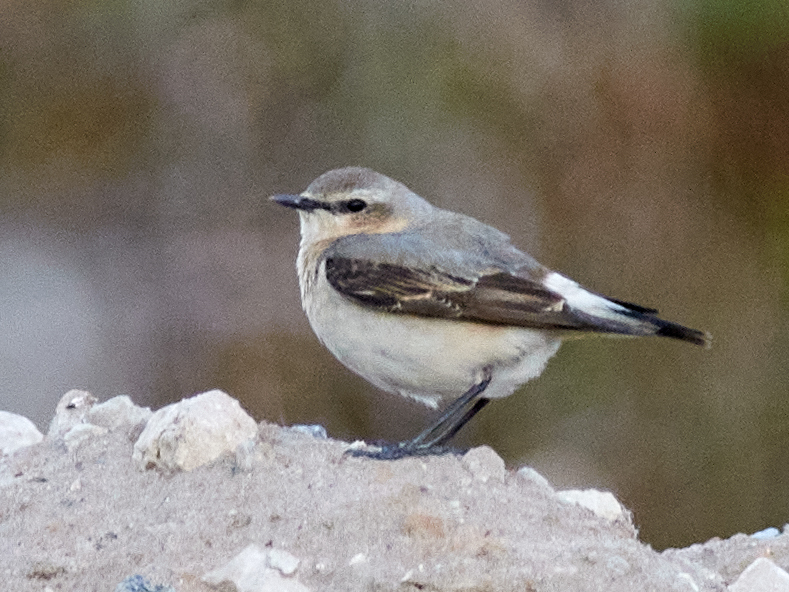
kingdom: Animalia
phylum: Chordata
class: Aves
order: Passeriformes
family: Muscicapidae
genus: Oenanthe
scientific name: Oenanthe oenanthe
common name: Northern wheatear
